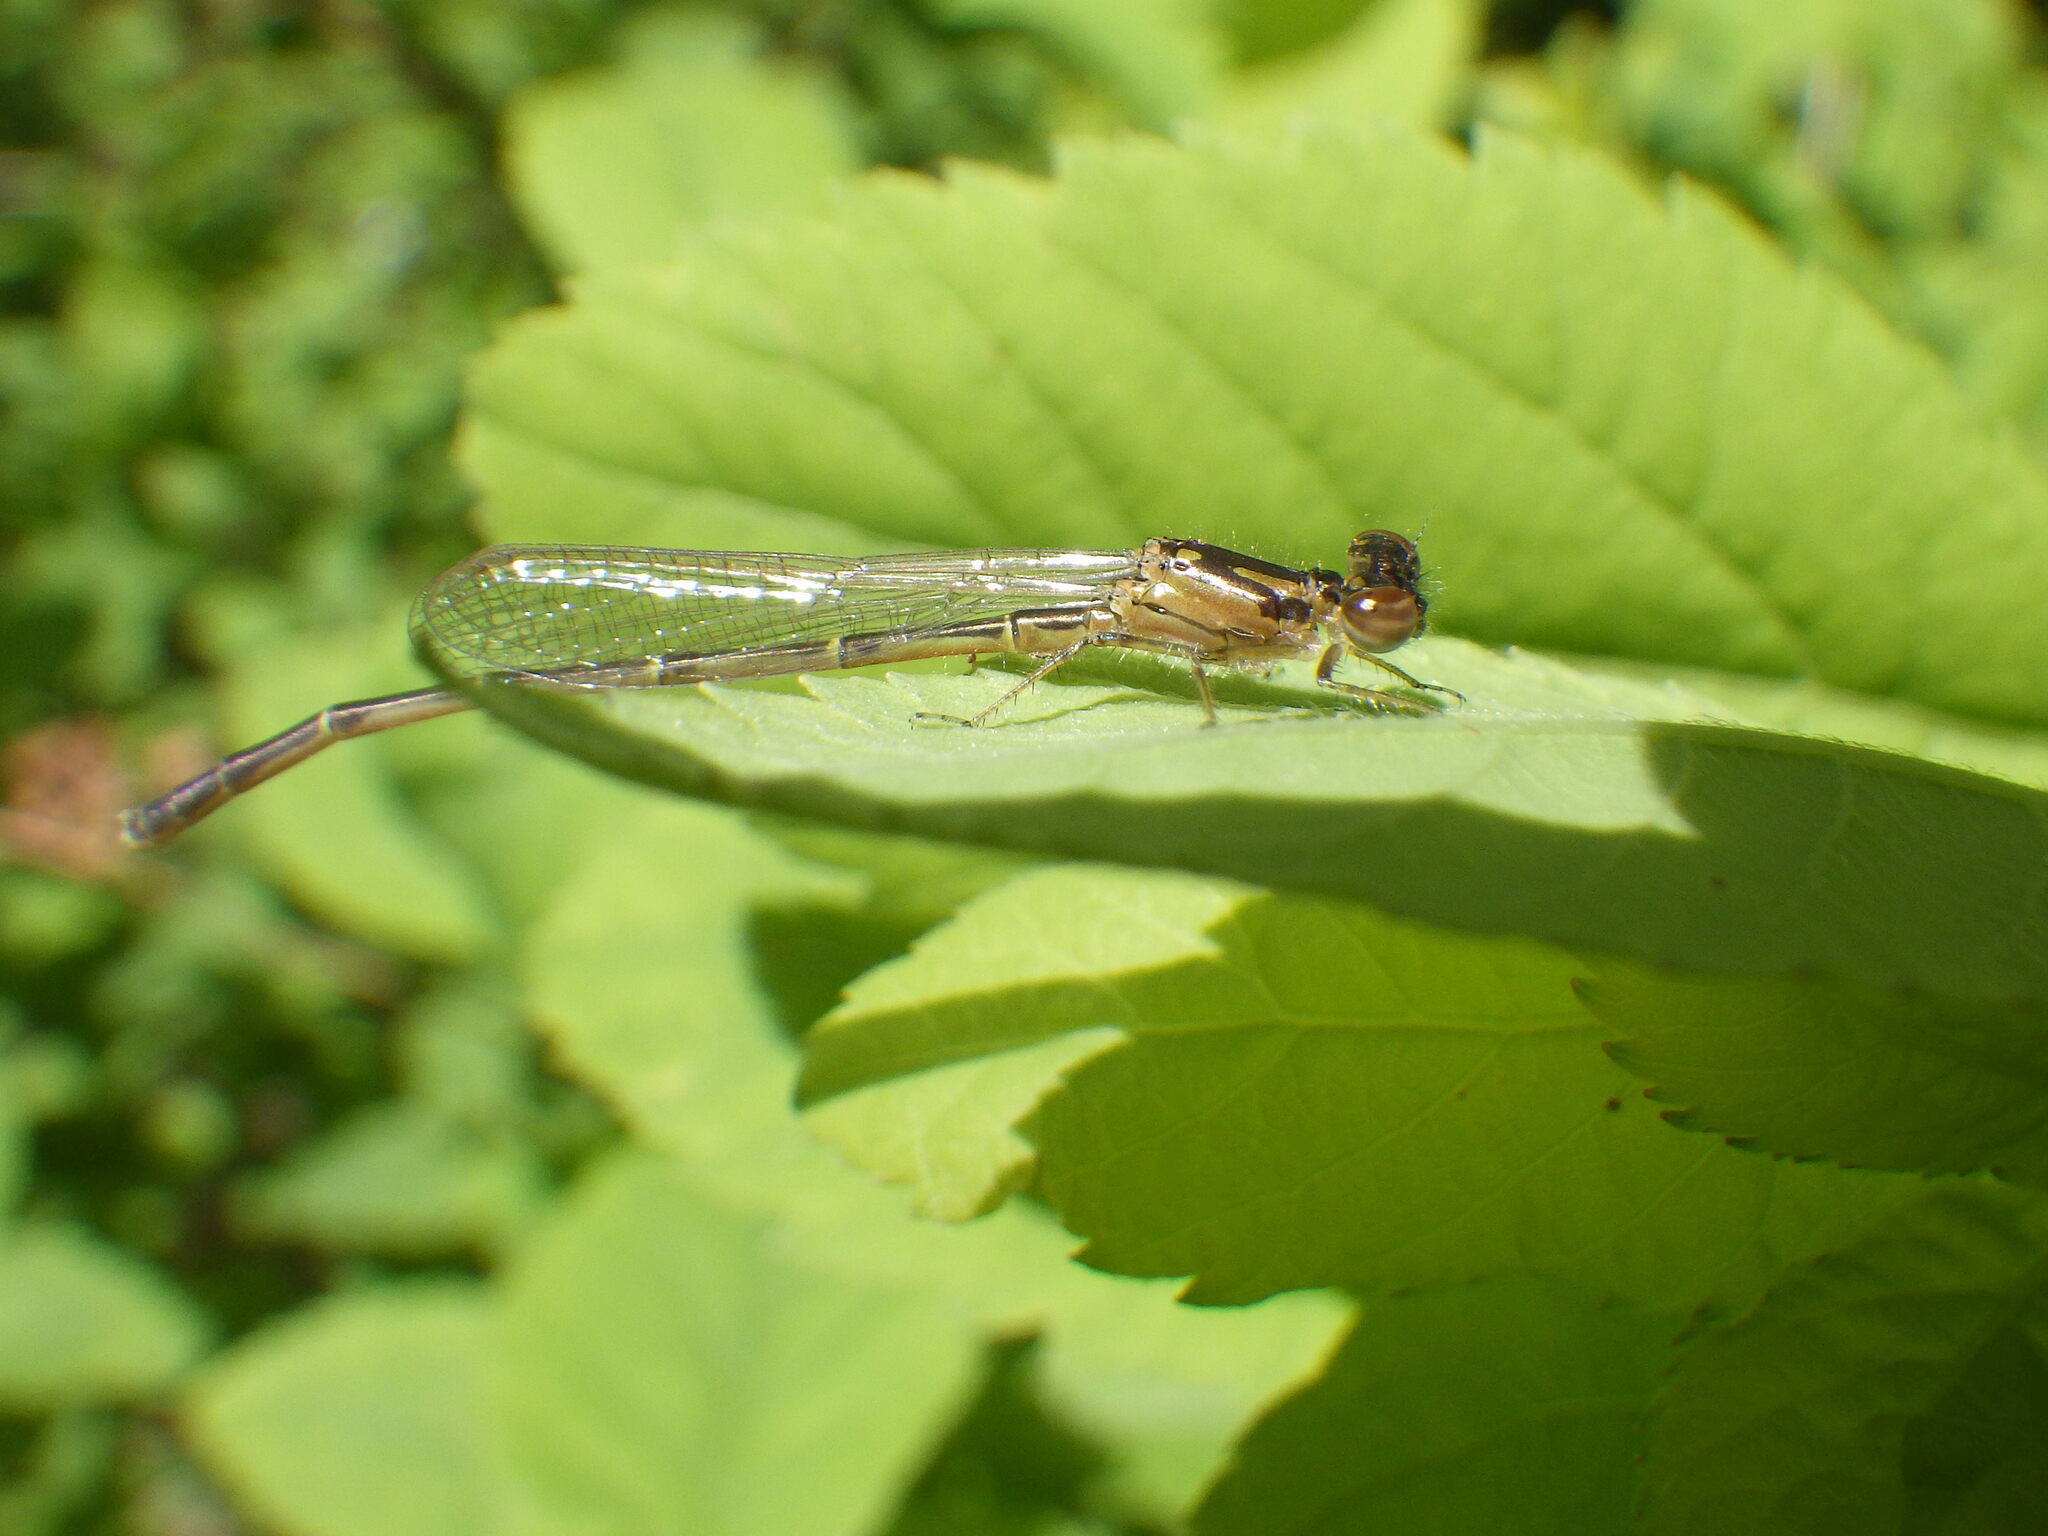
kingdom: Animalia
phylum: Arthropoda
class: Insecta
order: Odonata
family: Coenagrionidae
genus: Ischnura
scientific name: Ischnura posita
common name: Fragile forktail
